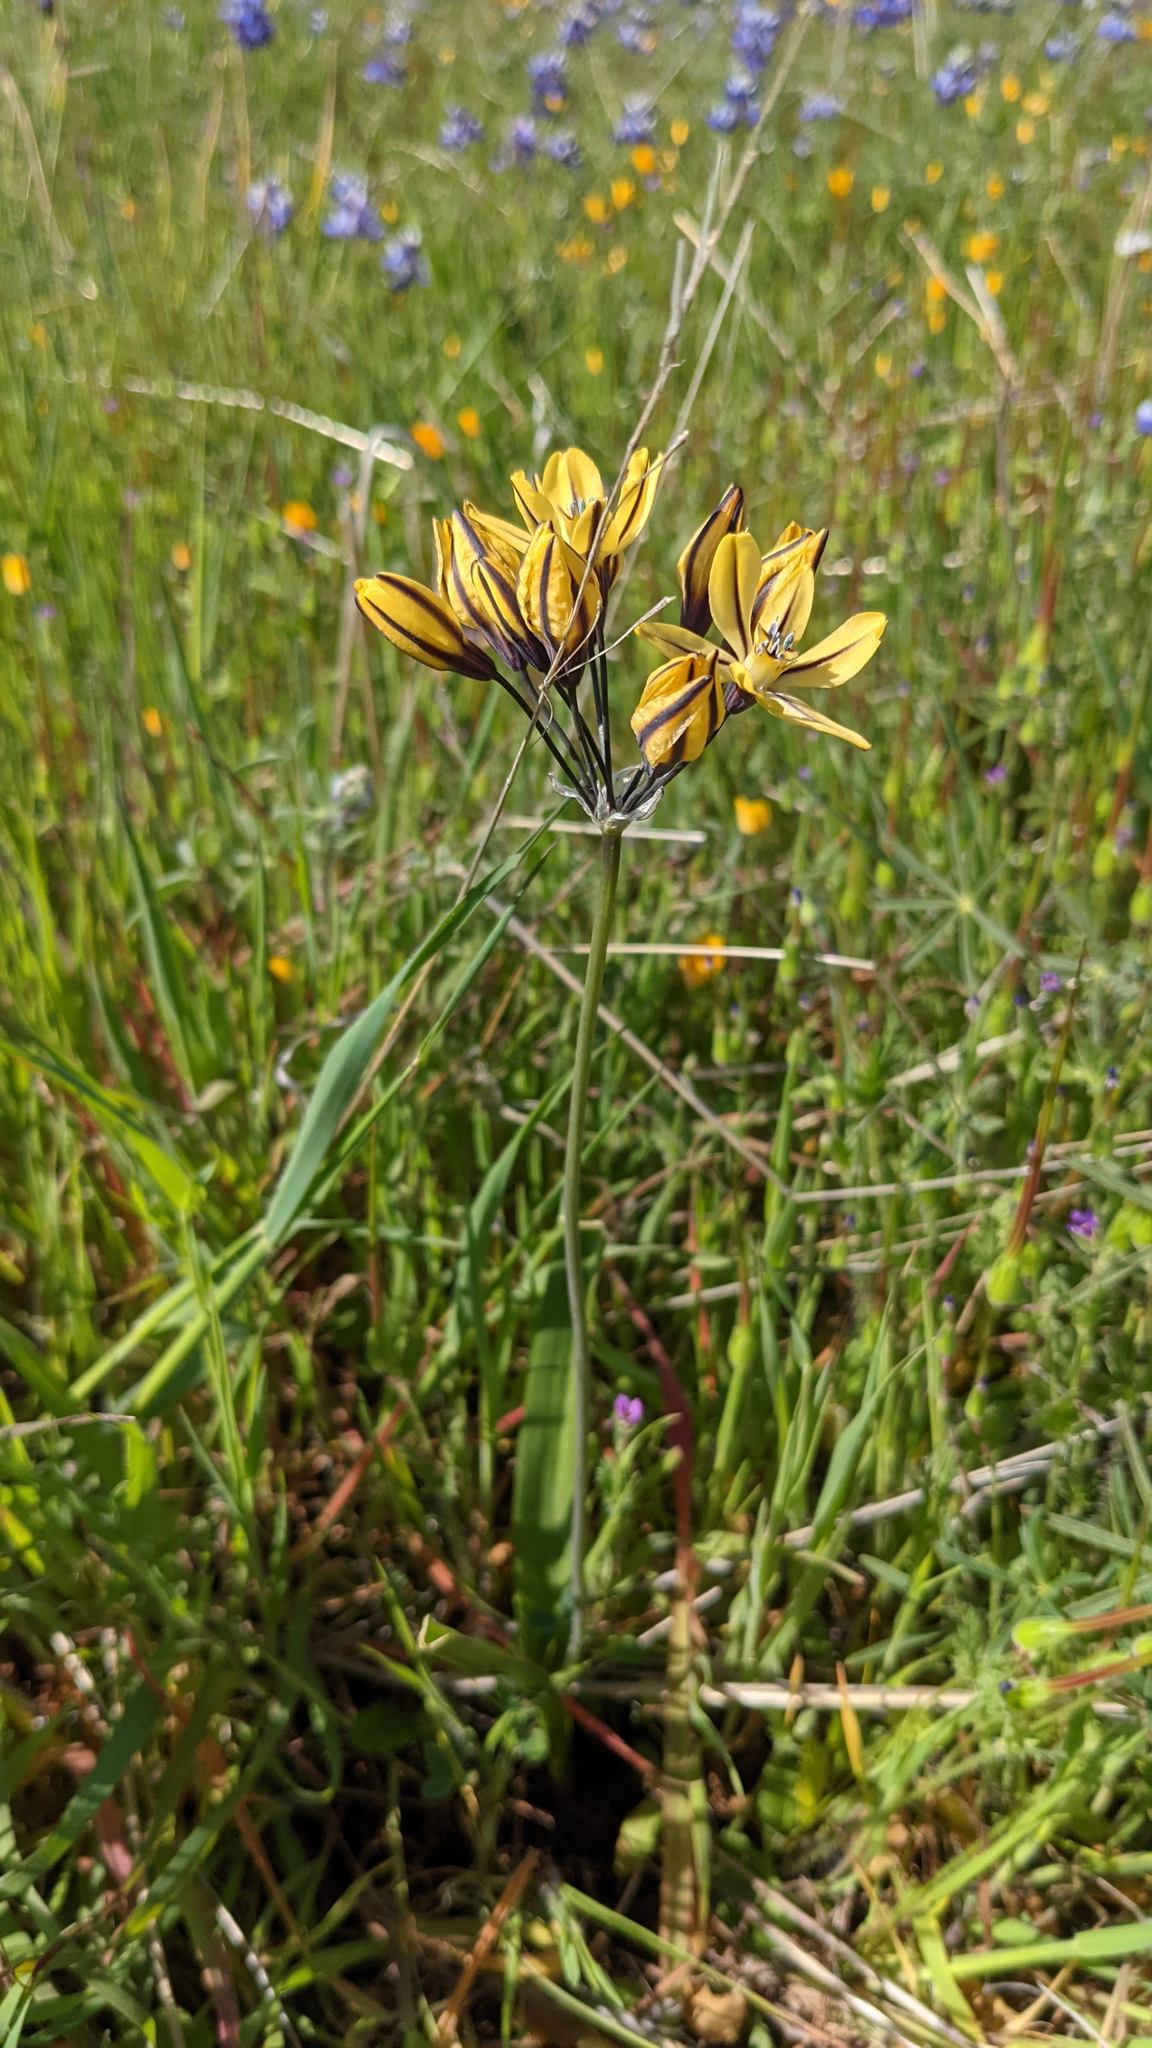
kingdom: Plantae
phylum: Tracheophyta
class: Liliopsida
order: Asparagales
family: Asparagaceae
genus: Triteleia
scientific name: Triteleia ixioides
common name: Yellow-brodiaea
